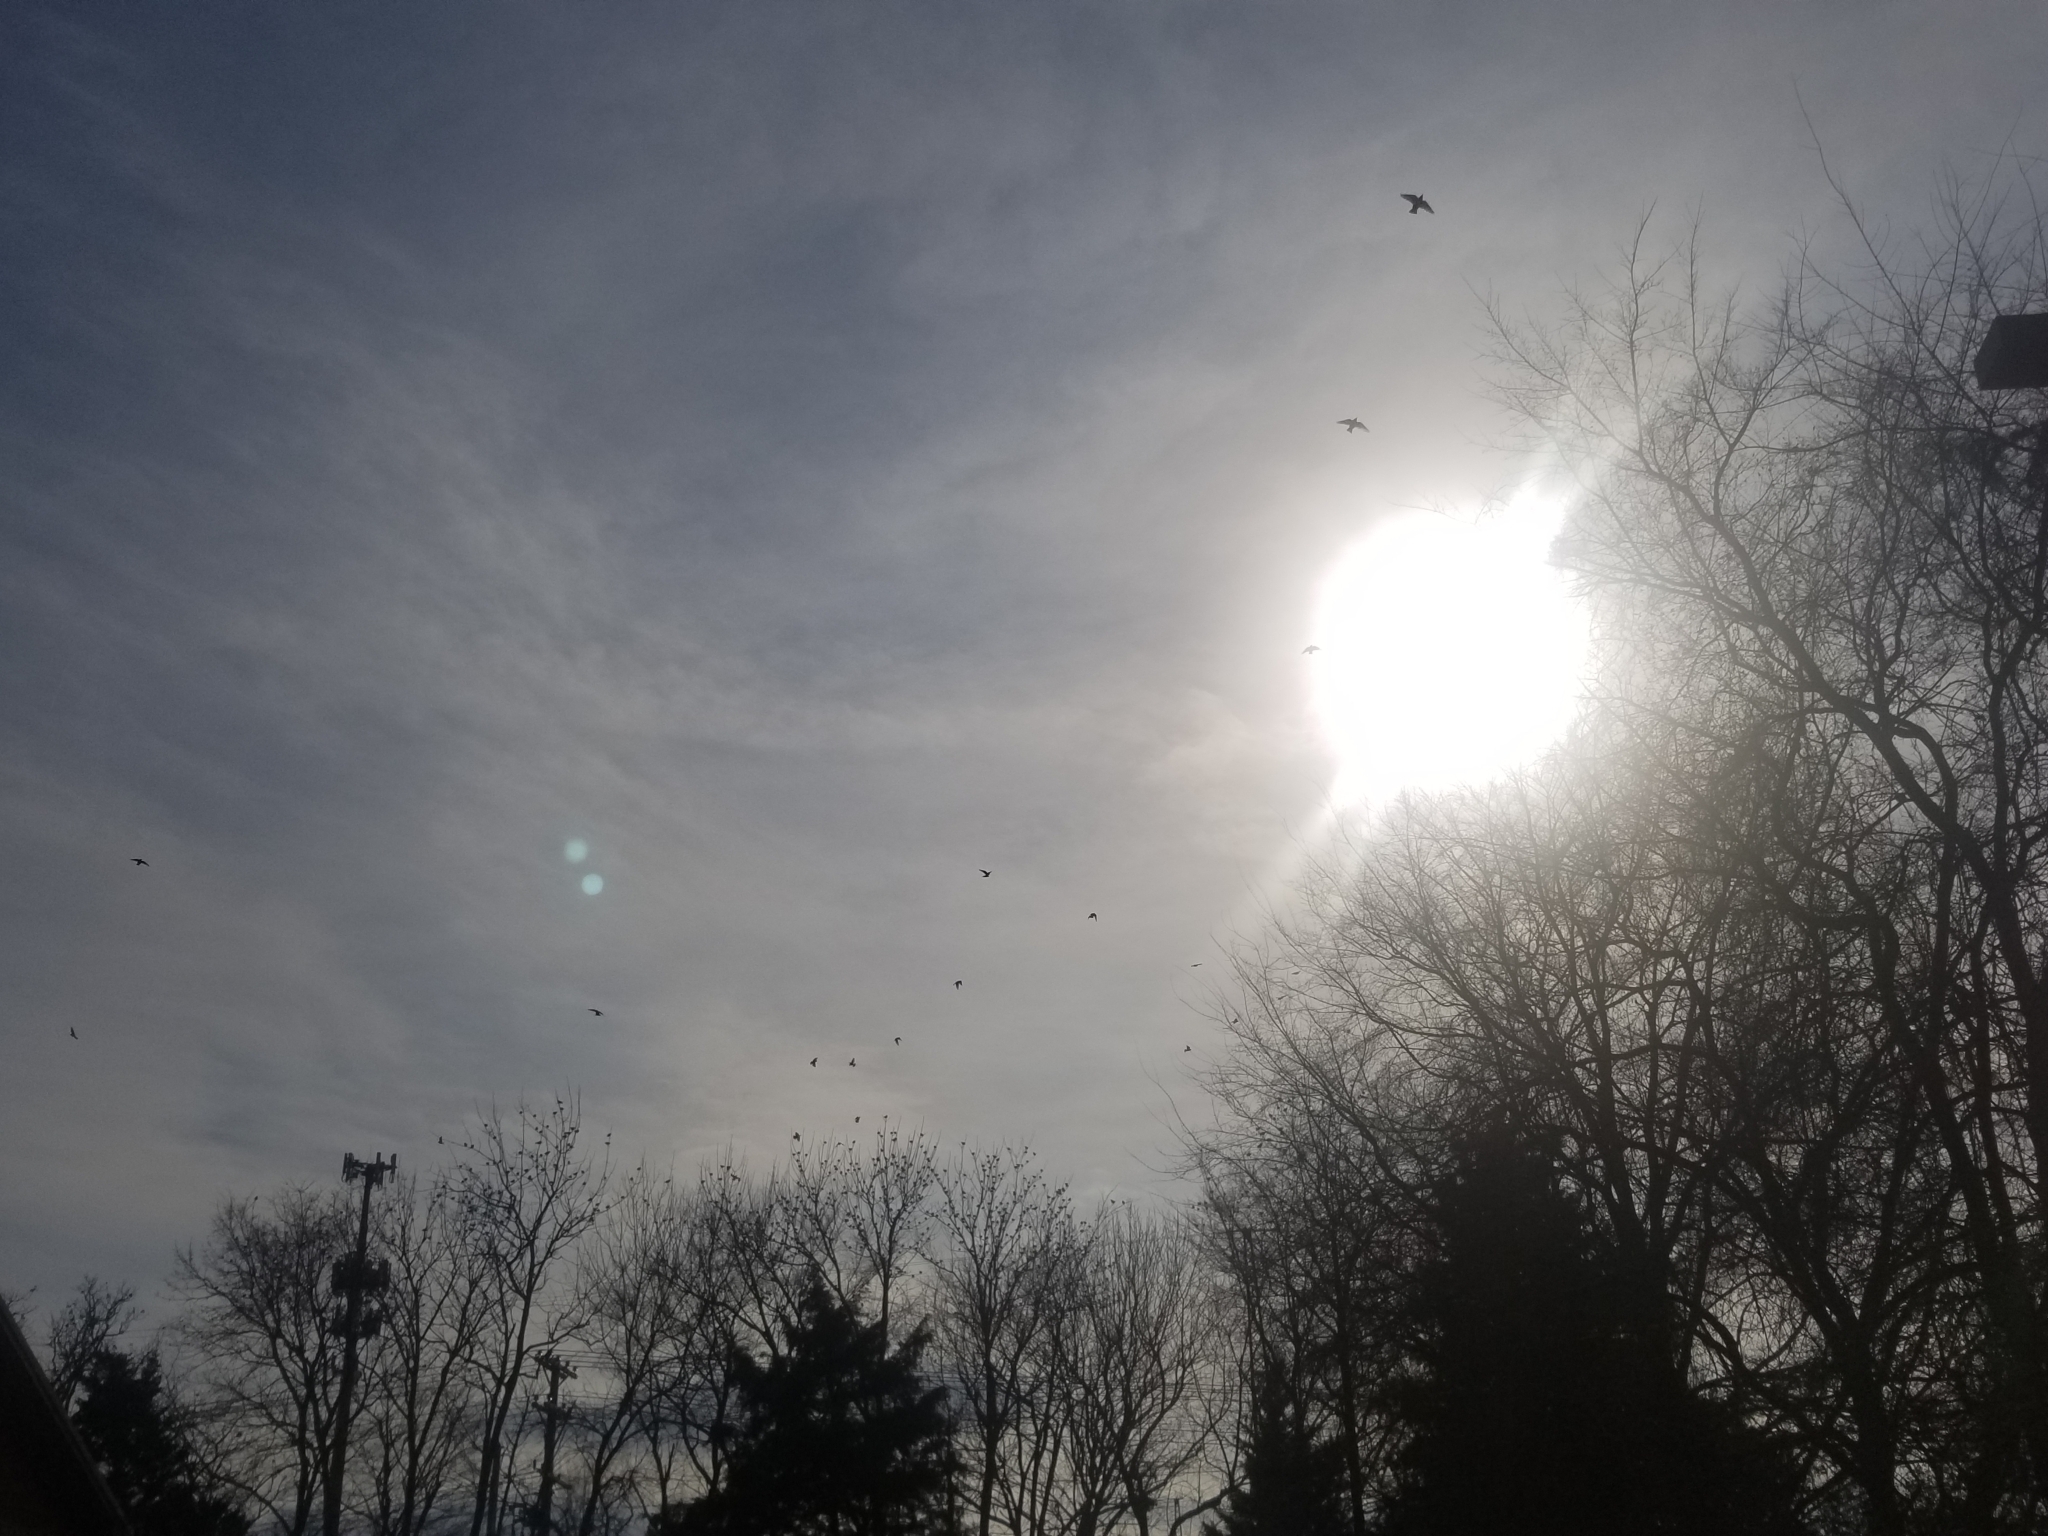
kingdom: Animalia
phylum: Chordata
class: Aves
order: Passeriformes
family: Sturnidae
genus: Sturnus
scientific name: Sturnus vulgaris
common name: Common starling
